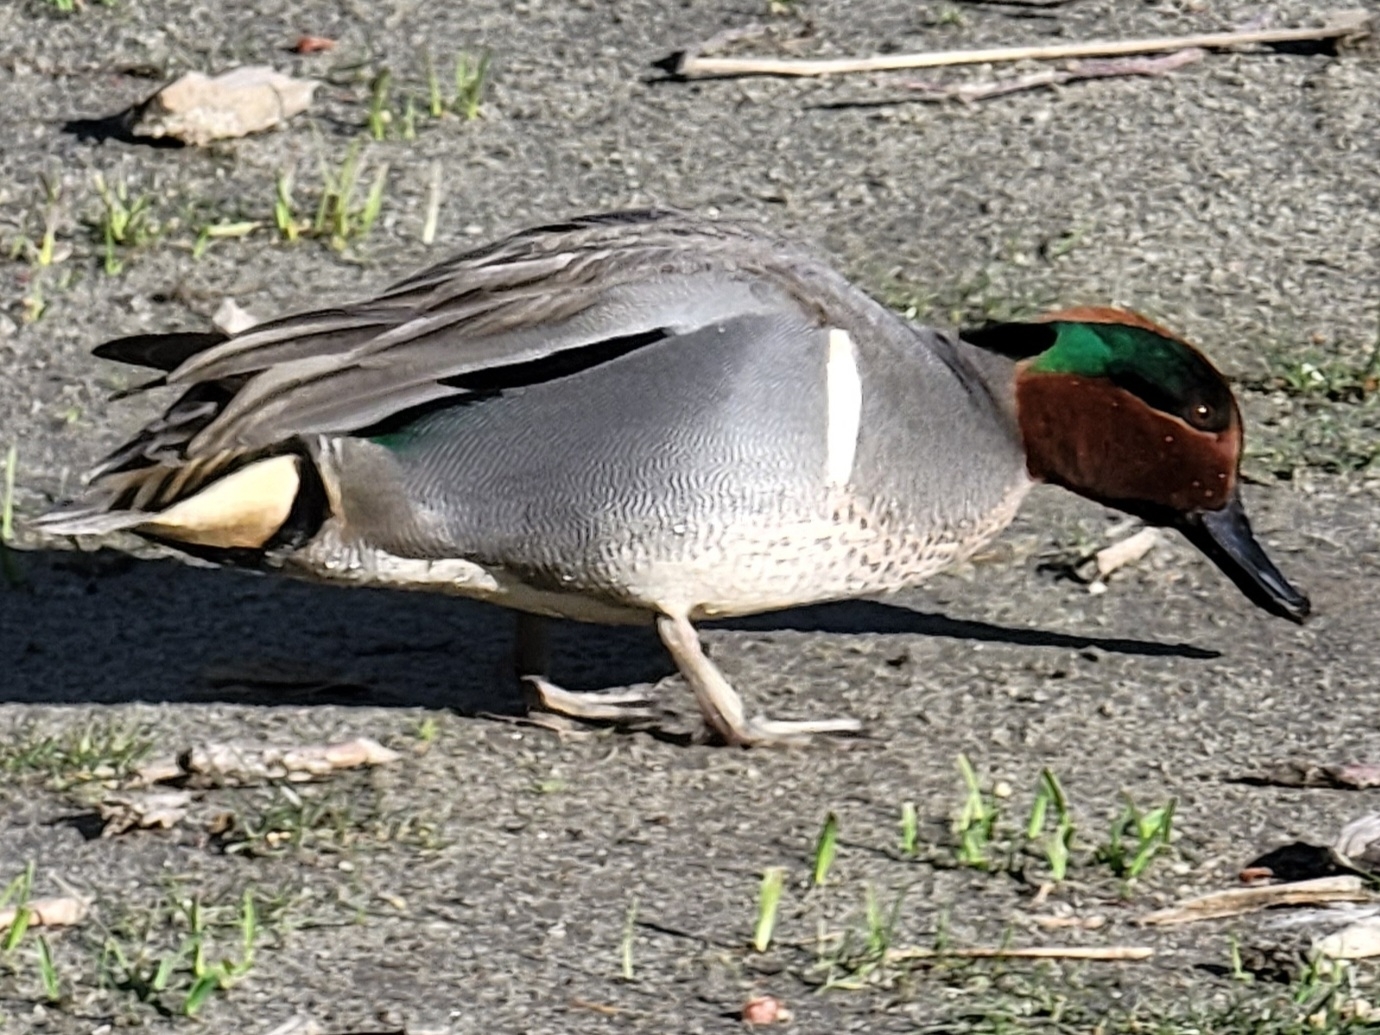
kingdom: Animalia
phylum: Chordata
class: Aves
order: Anseriformes
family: Anatidae
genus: Anas
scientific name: Anas crecca
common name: Eurasian teal
